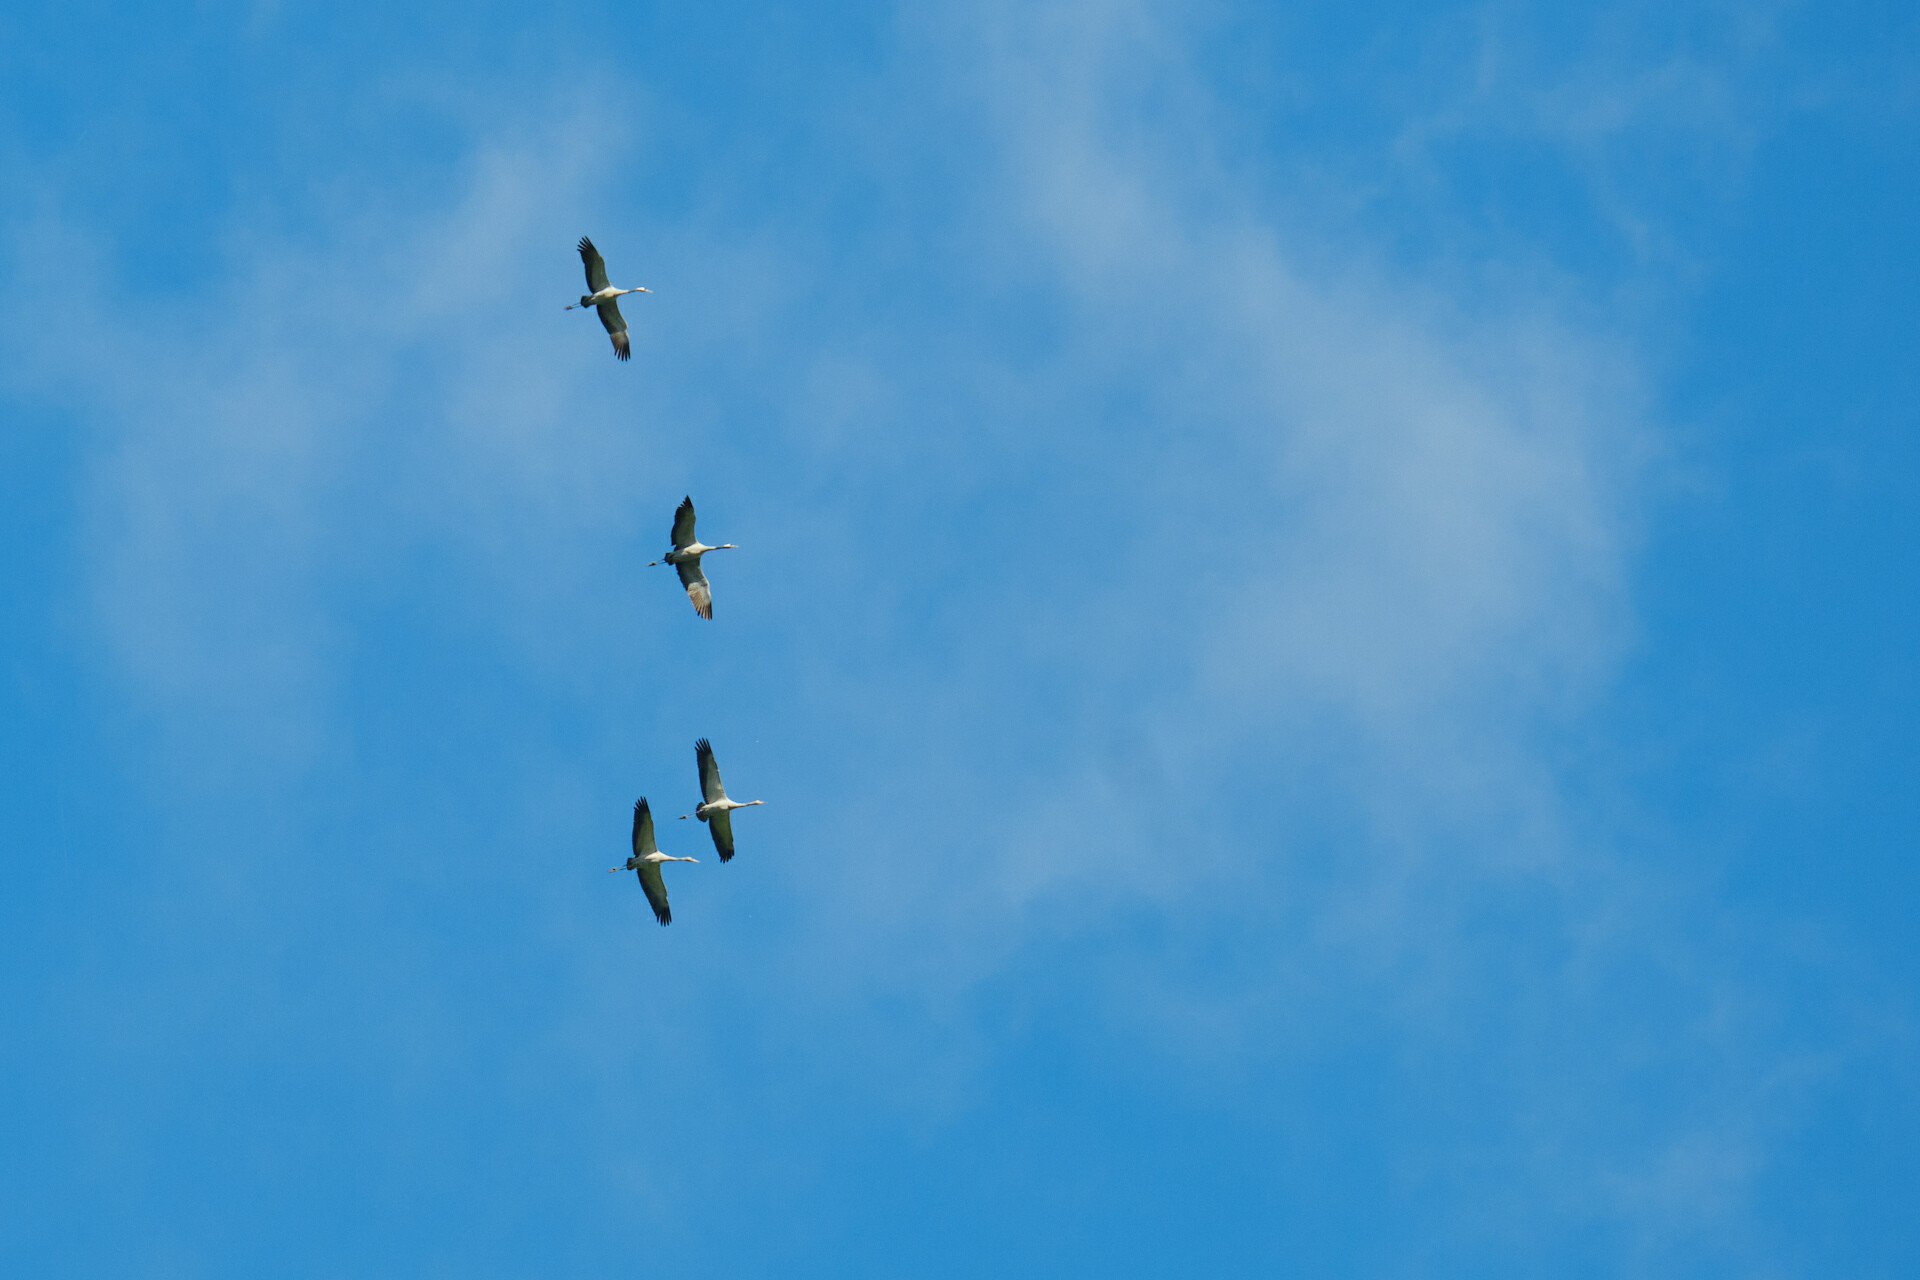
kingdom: Animalia
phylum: Chordata
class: Aves
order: Gruiformes
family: Gruidae
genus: Grus
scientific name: Grus grus
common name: Common crane
